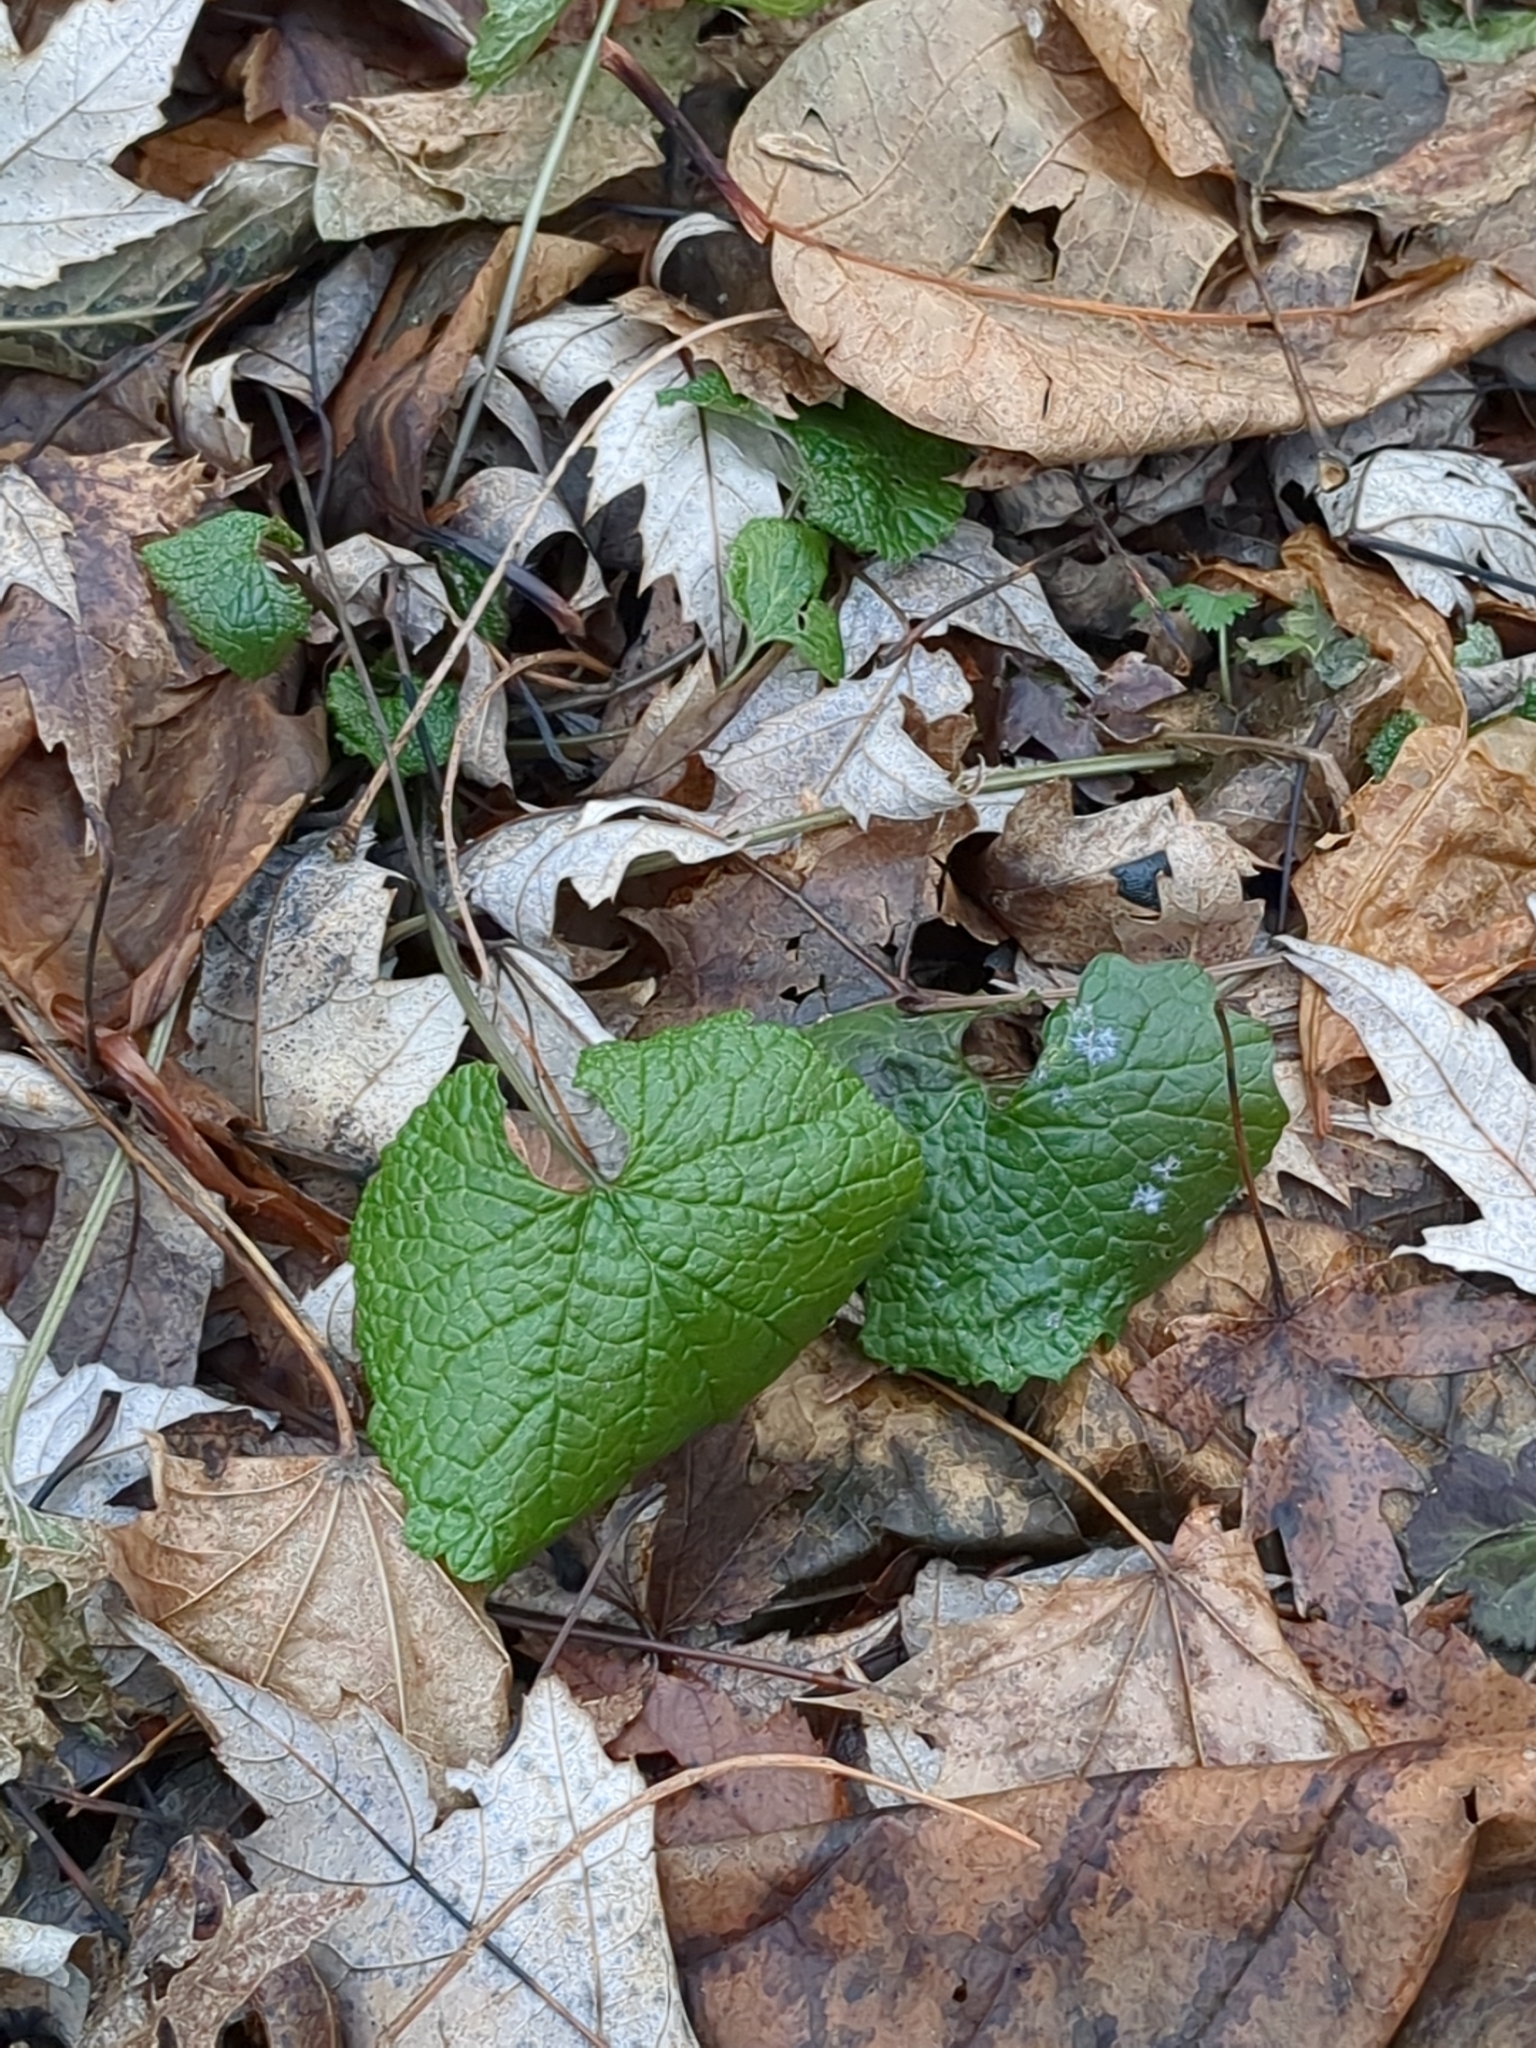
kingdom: Plantae
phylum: Tracheophyta
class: Magnoliopsida
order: Brassicales
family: Brassicaceae
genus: Alliaria
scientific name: Alliaria petiolata
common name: Garlic mustard
